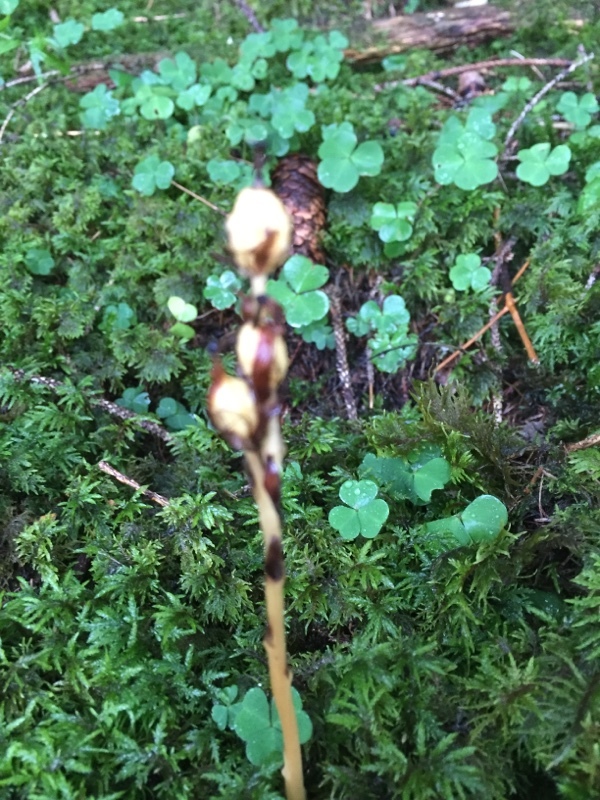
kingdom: Plantae
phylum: Tracheophyta
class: Magnoliopsida
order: Ericales
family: Ericaceae
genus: Hypopitys
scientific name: Hypopitys monotropa
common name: Yellow bird's-nest
